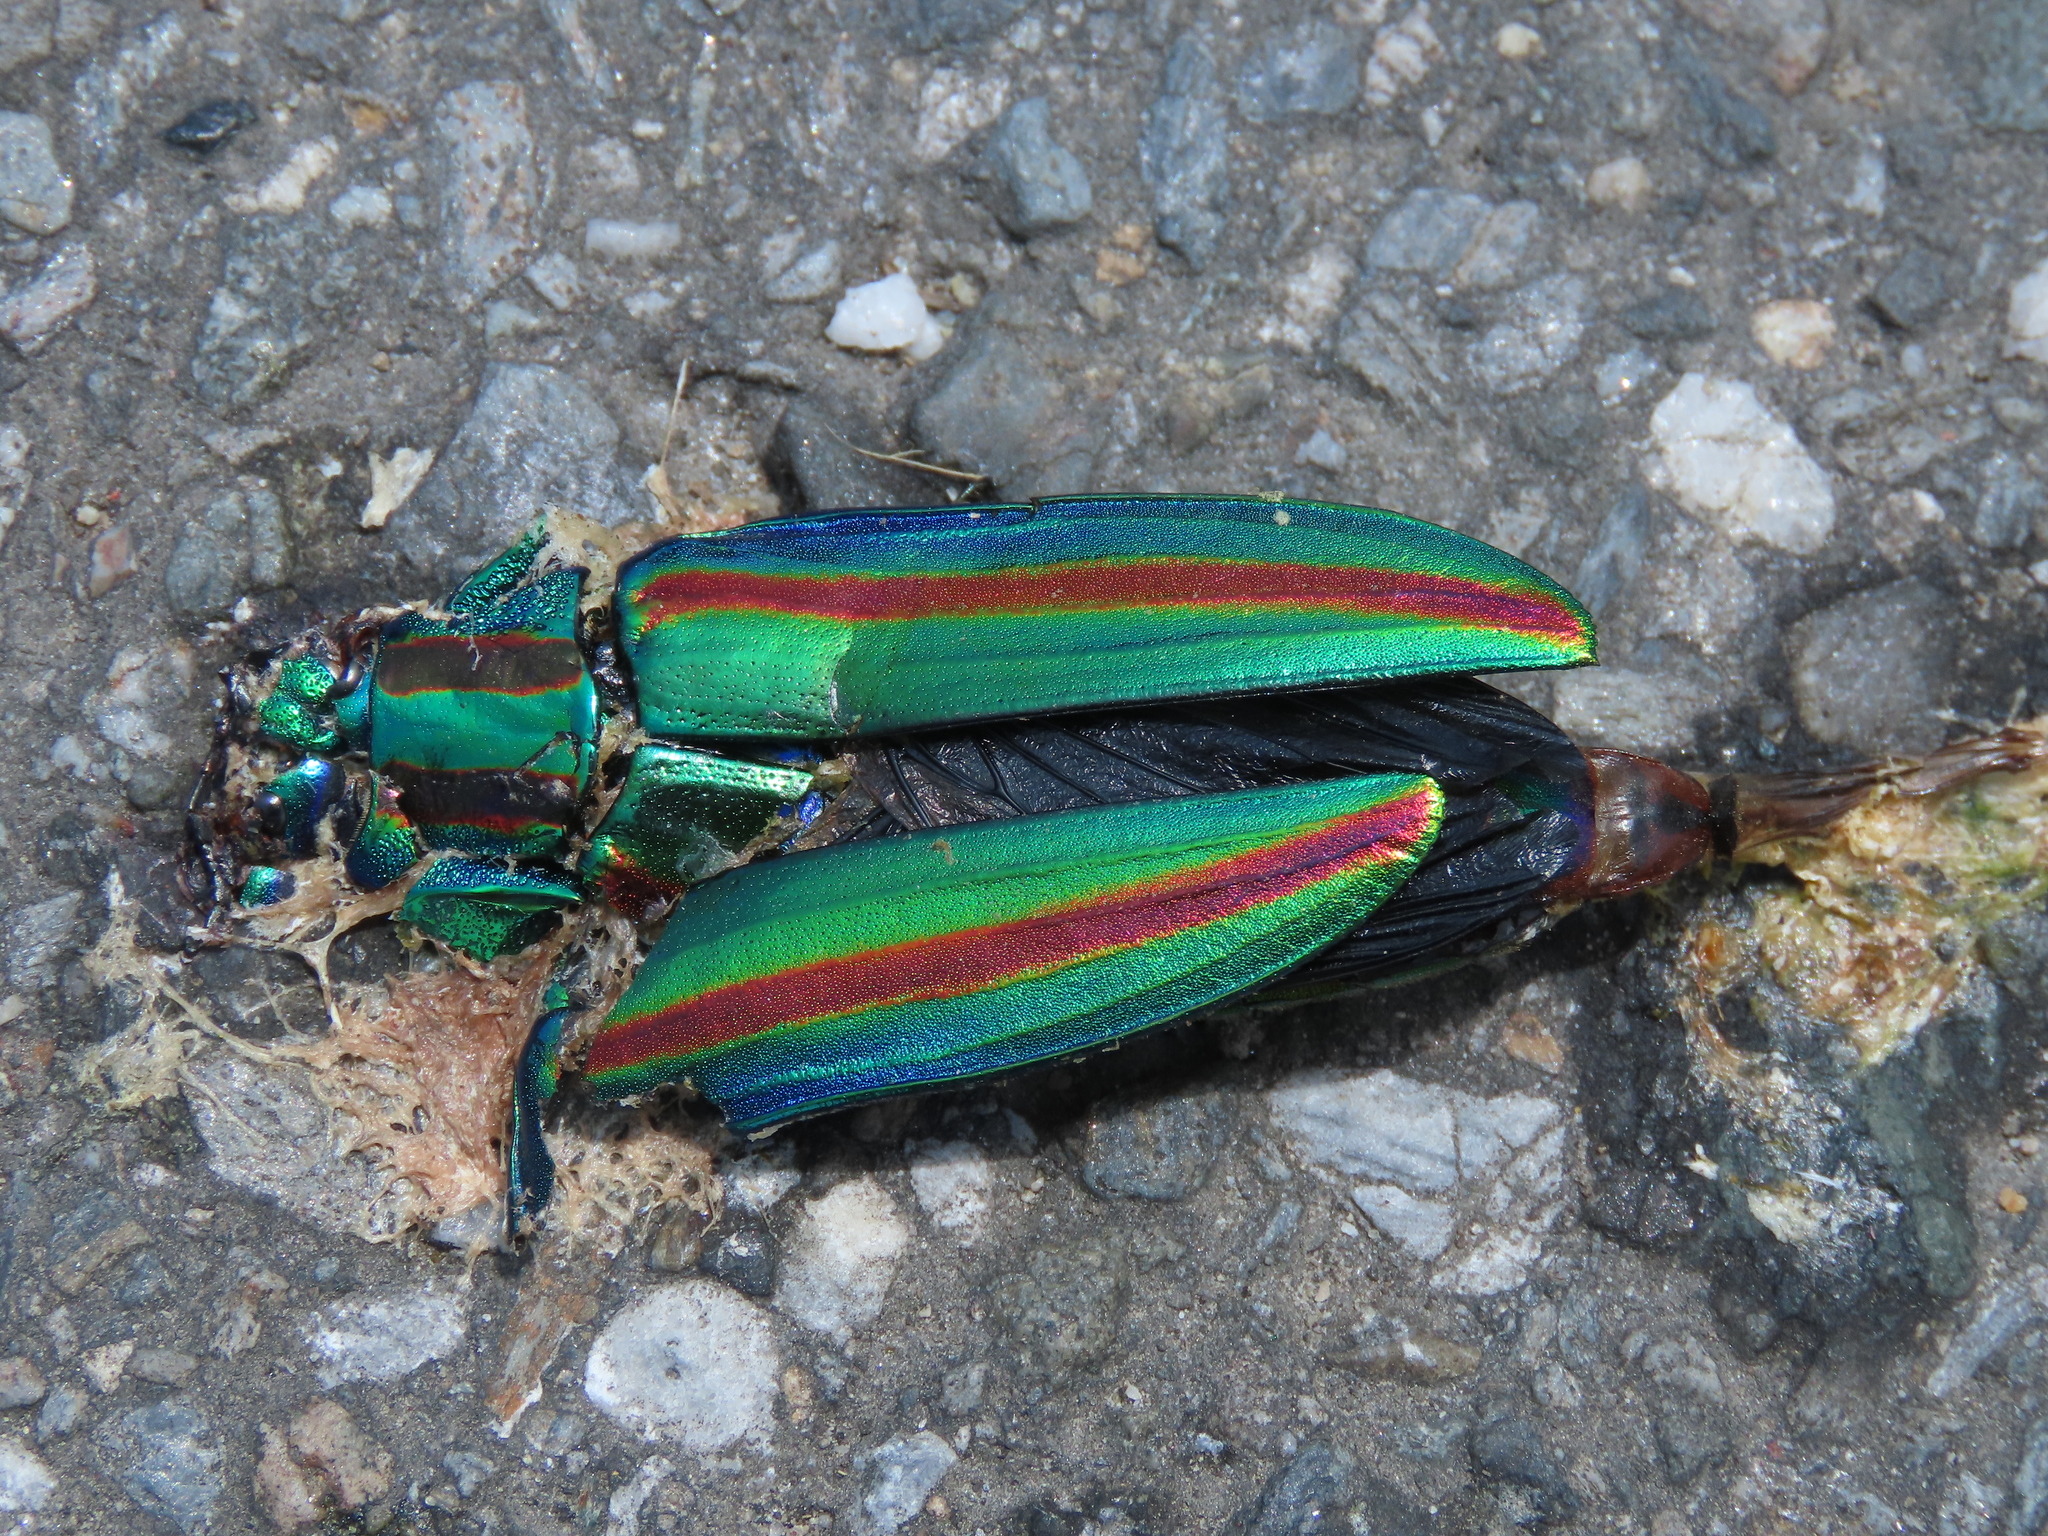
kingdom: Animalia
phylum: Arthropoda
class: Insecta
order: Coleoptera
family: Buprestidae
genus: Chrysochroa
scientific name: Chrysochroa fulgidissima
